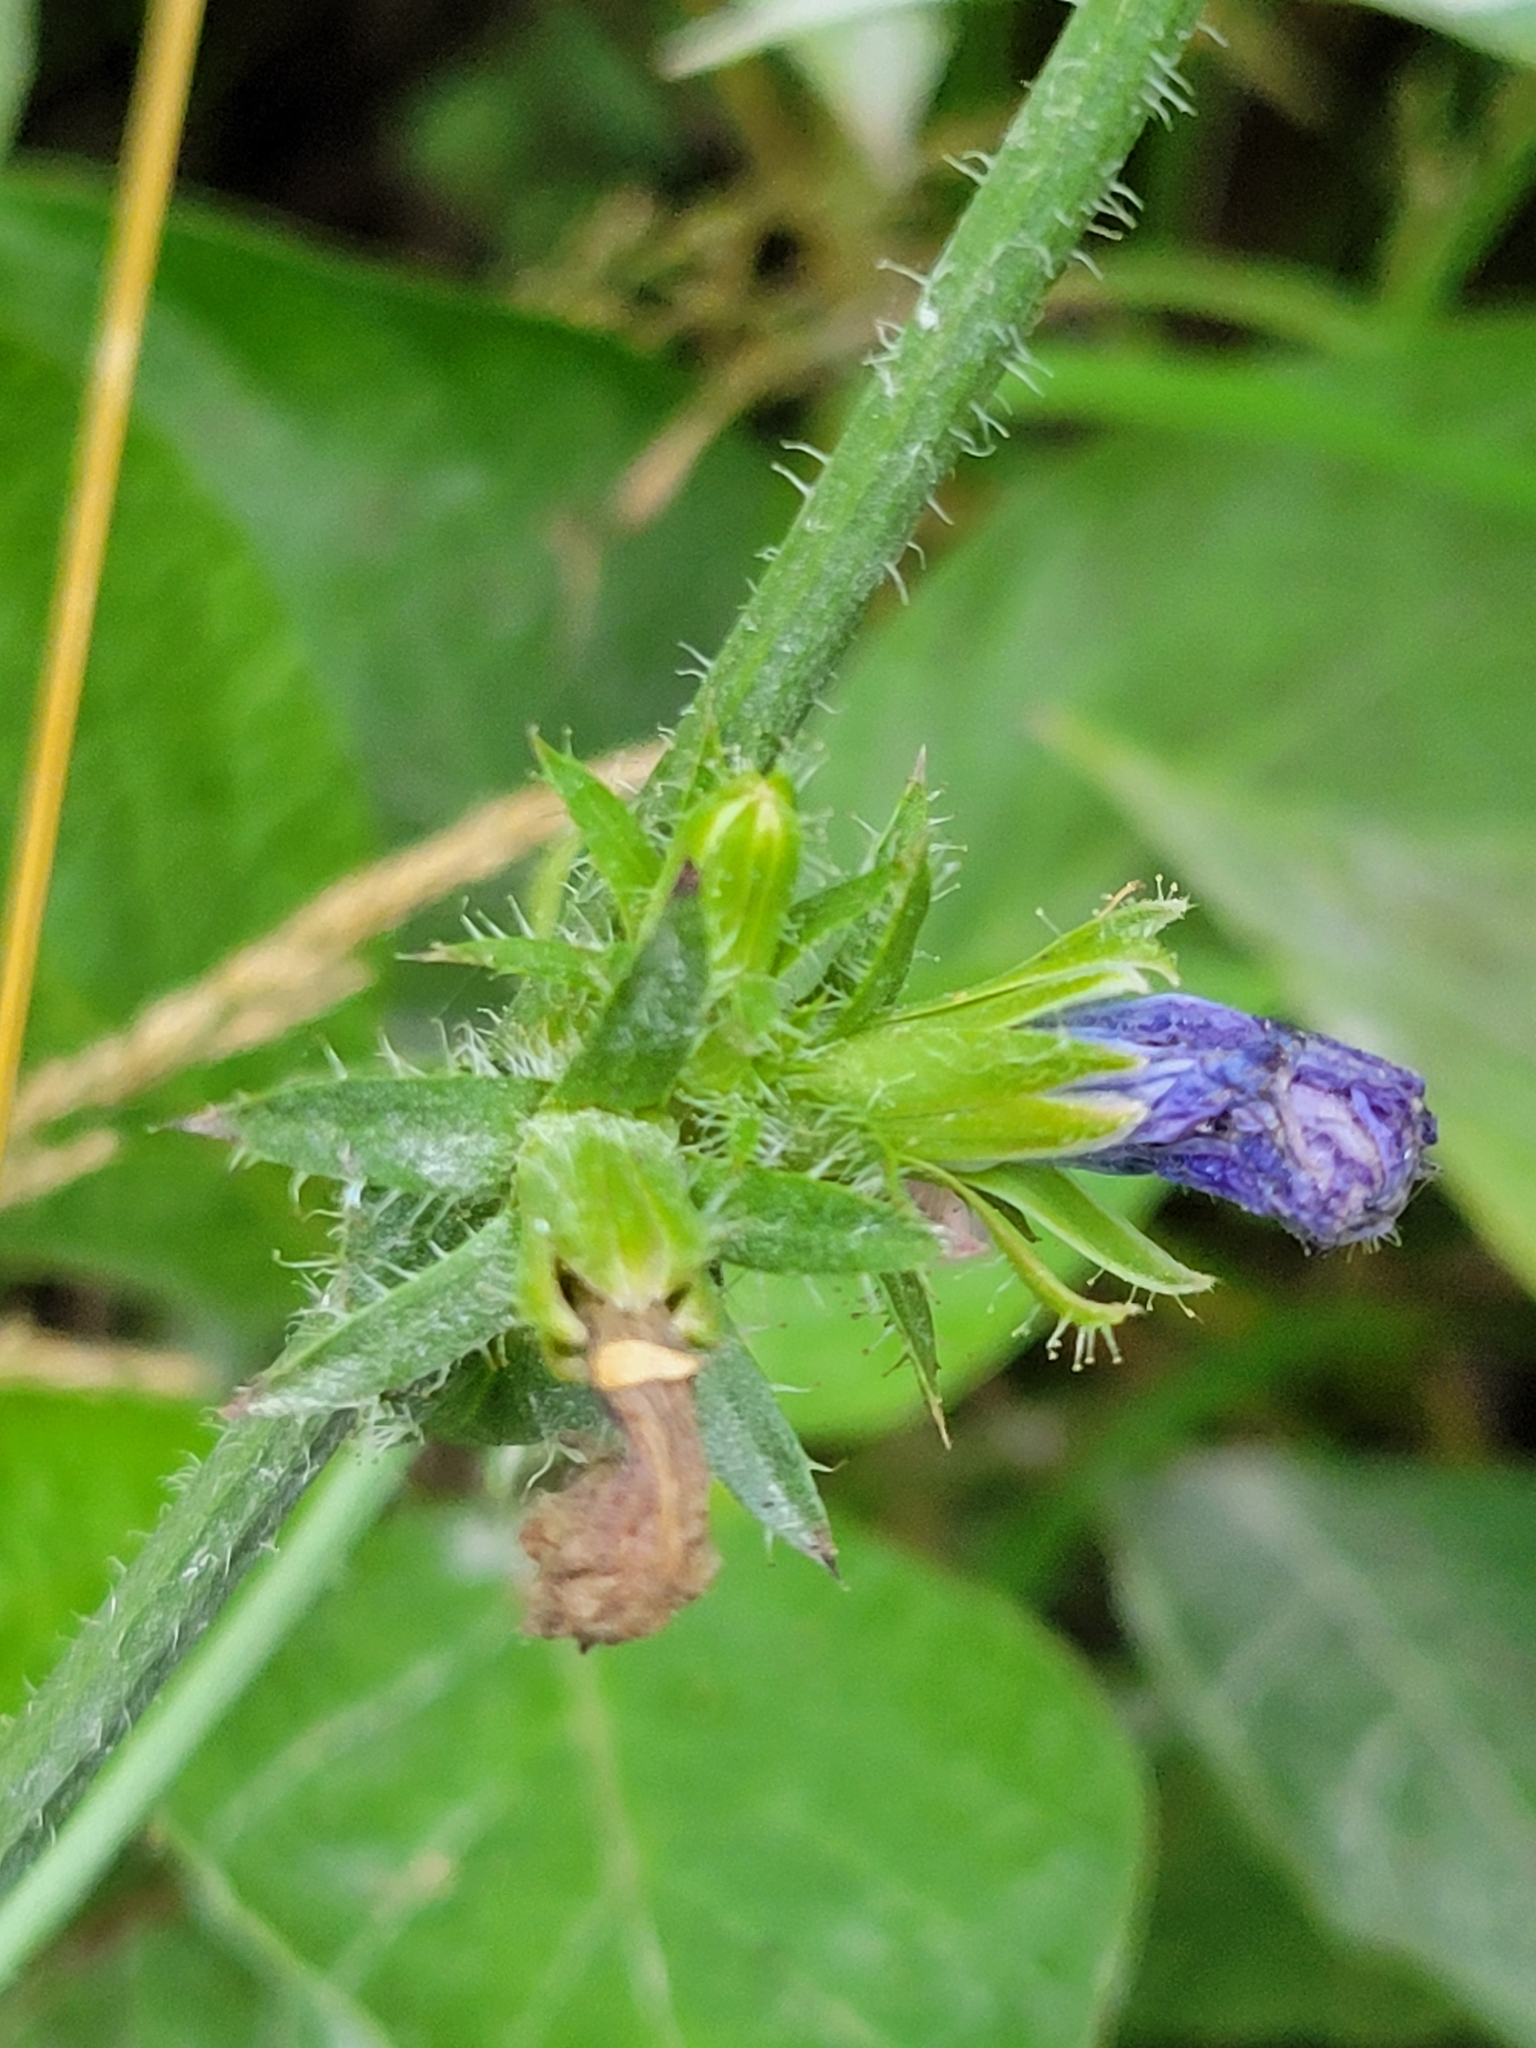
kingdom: Plantae
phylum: Tracheophyta
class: Magnoliopsida
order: Asterales
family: Asteraceae
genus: Cichorium
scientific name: Cichorium intybus
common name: Chicory
